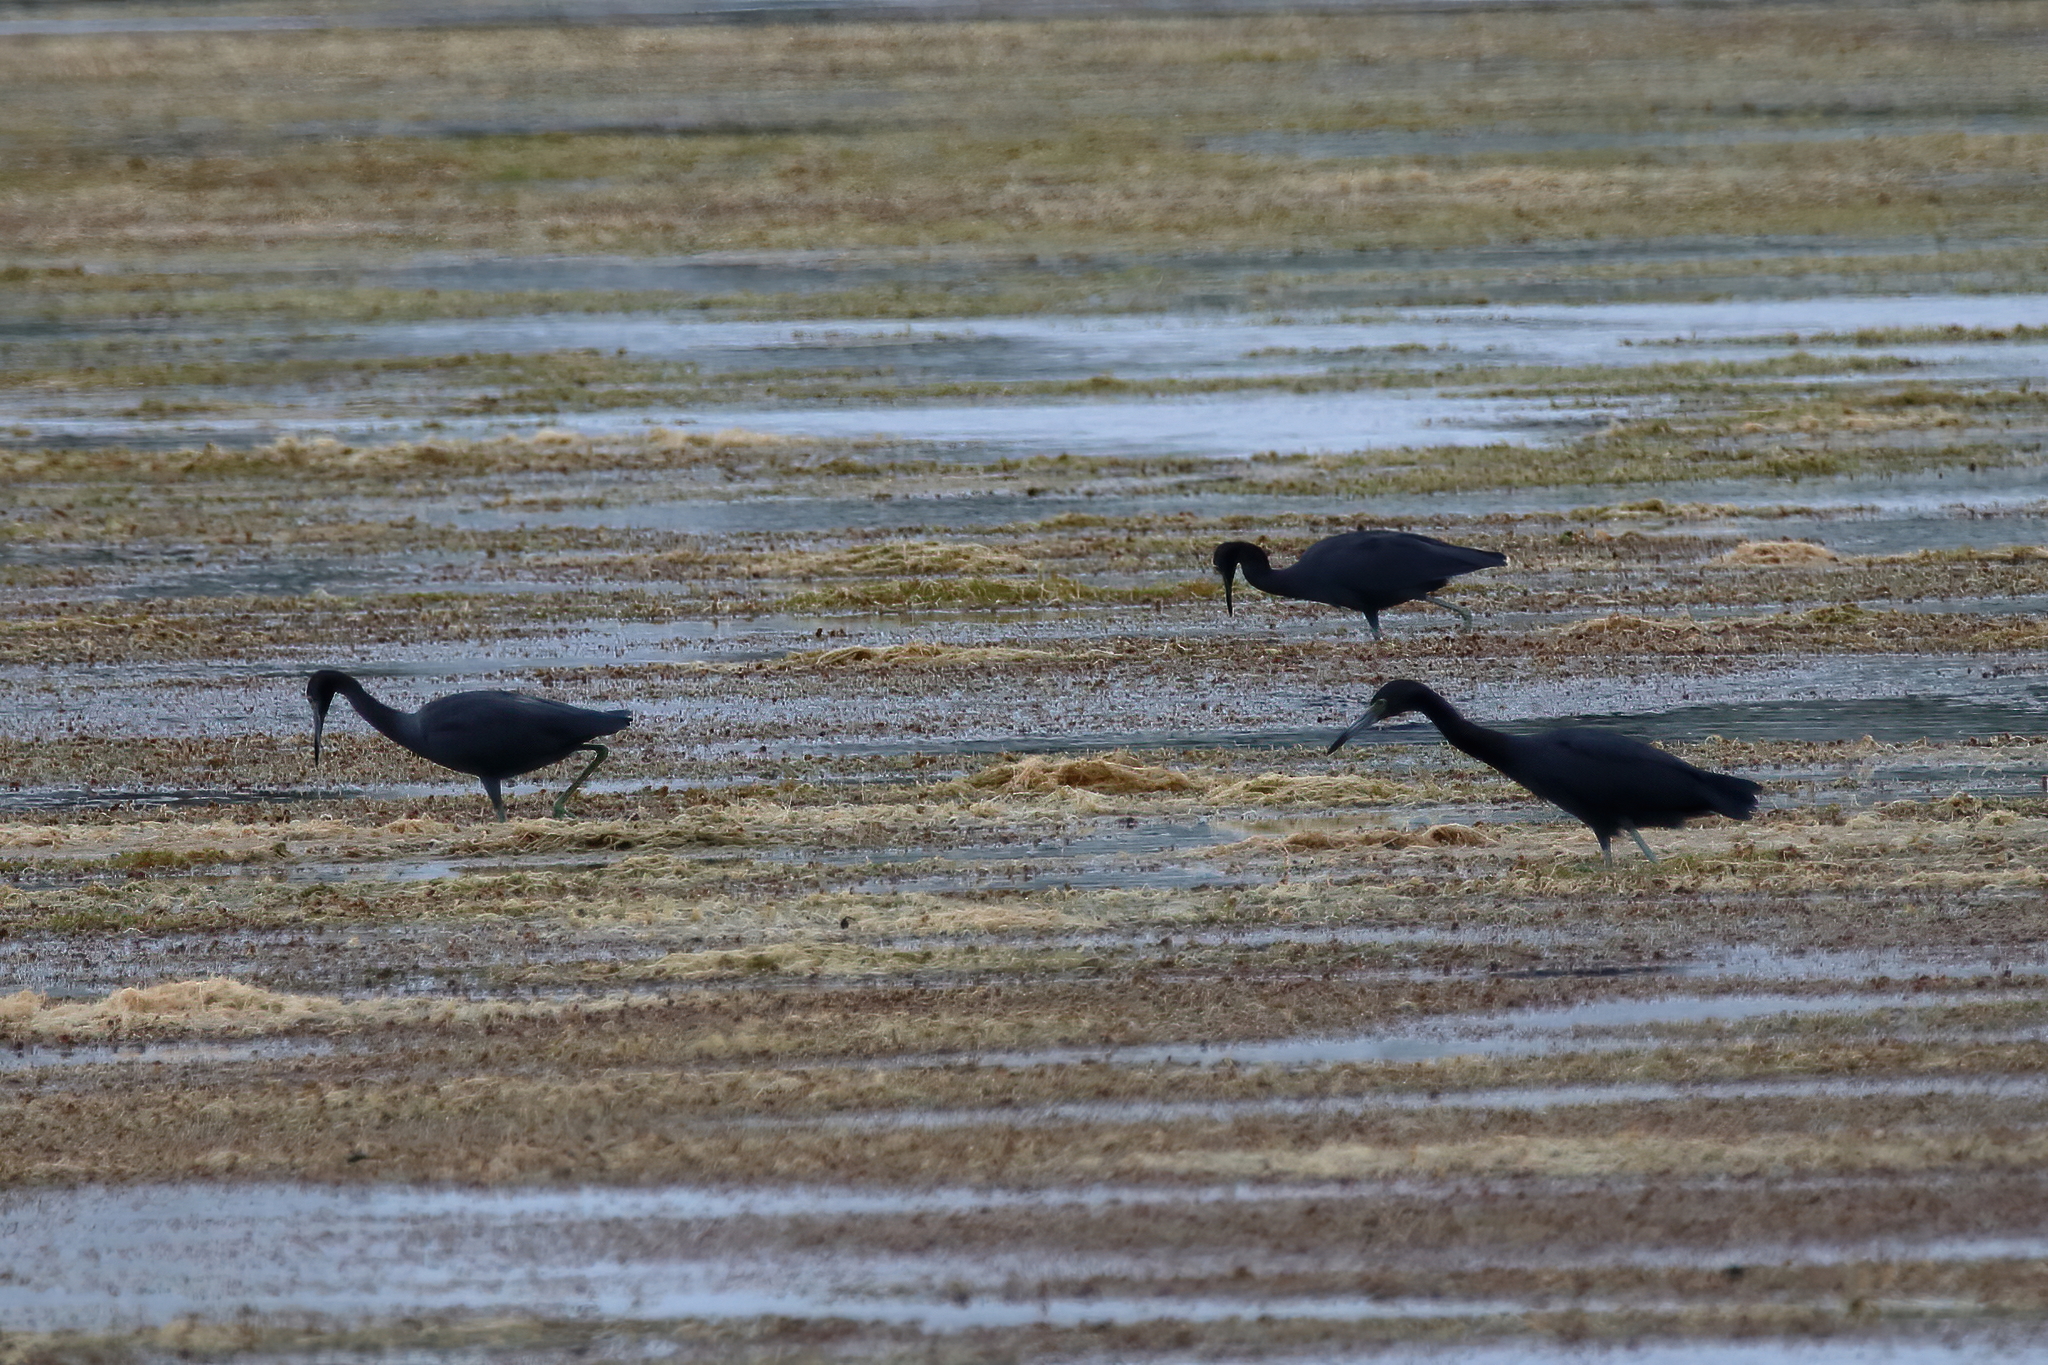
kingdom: Animalia
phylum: Chordata
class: Aves
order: Pelecaniformes
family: Ardeidae
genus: Egretta
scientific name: Egretta caerulea
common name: Little blue heron
